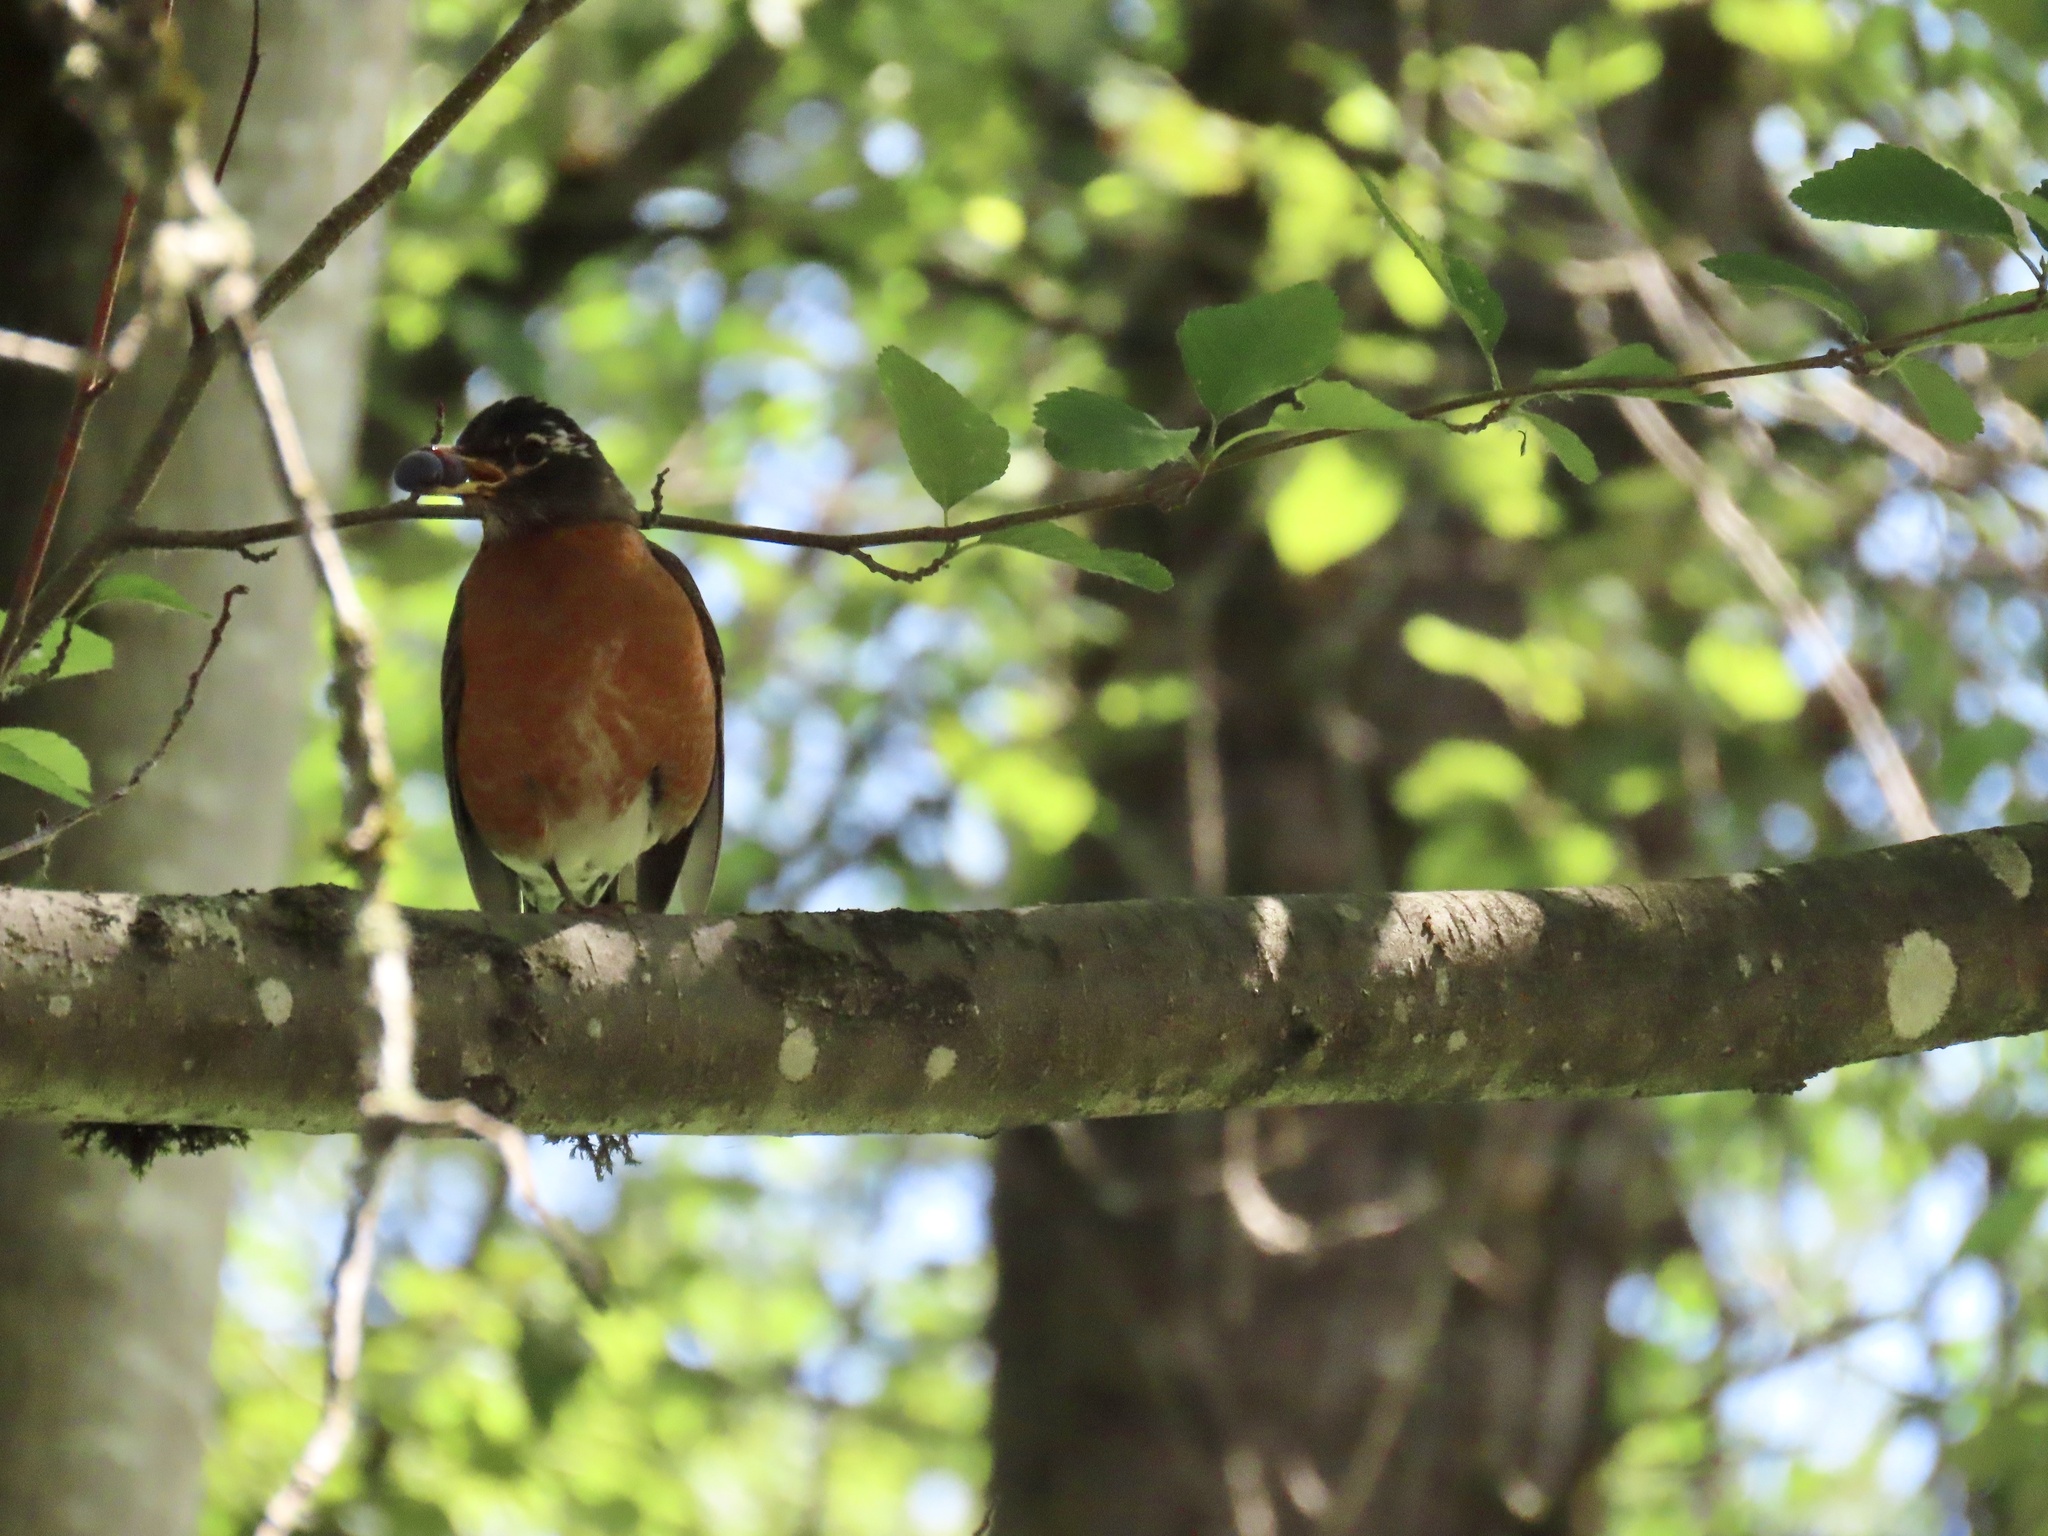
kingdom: Animalia
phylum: Chordata
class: Aves
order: Passeriformes
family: Turdidae
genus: Turdus
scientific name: Turdus migratorius
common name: American robin
